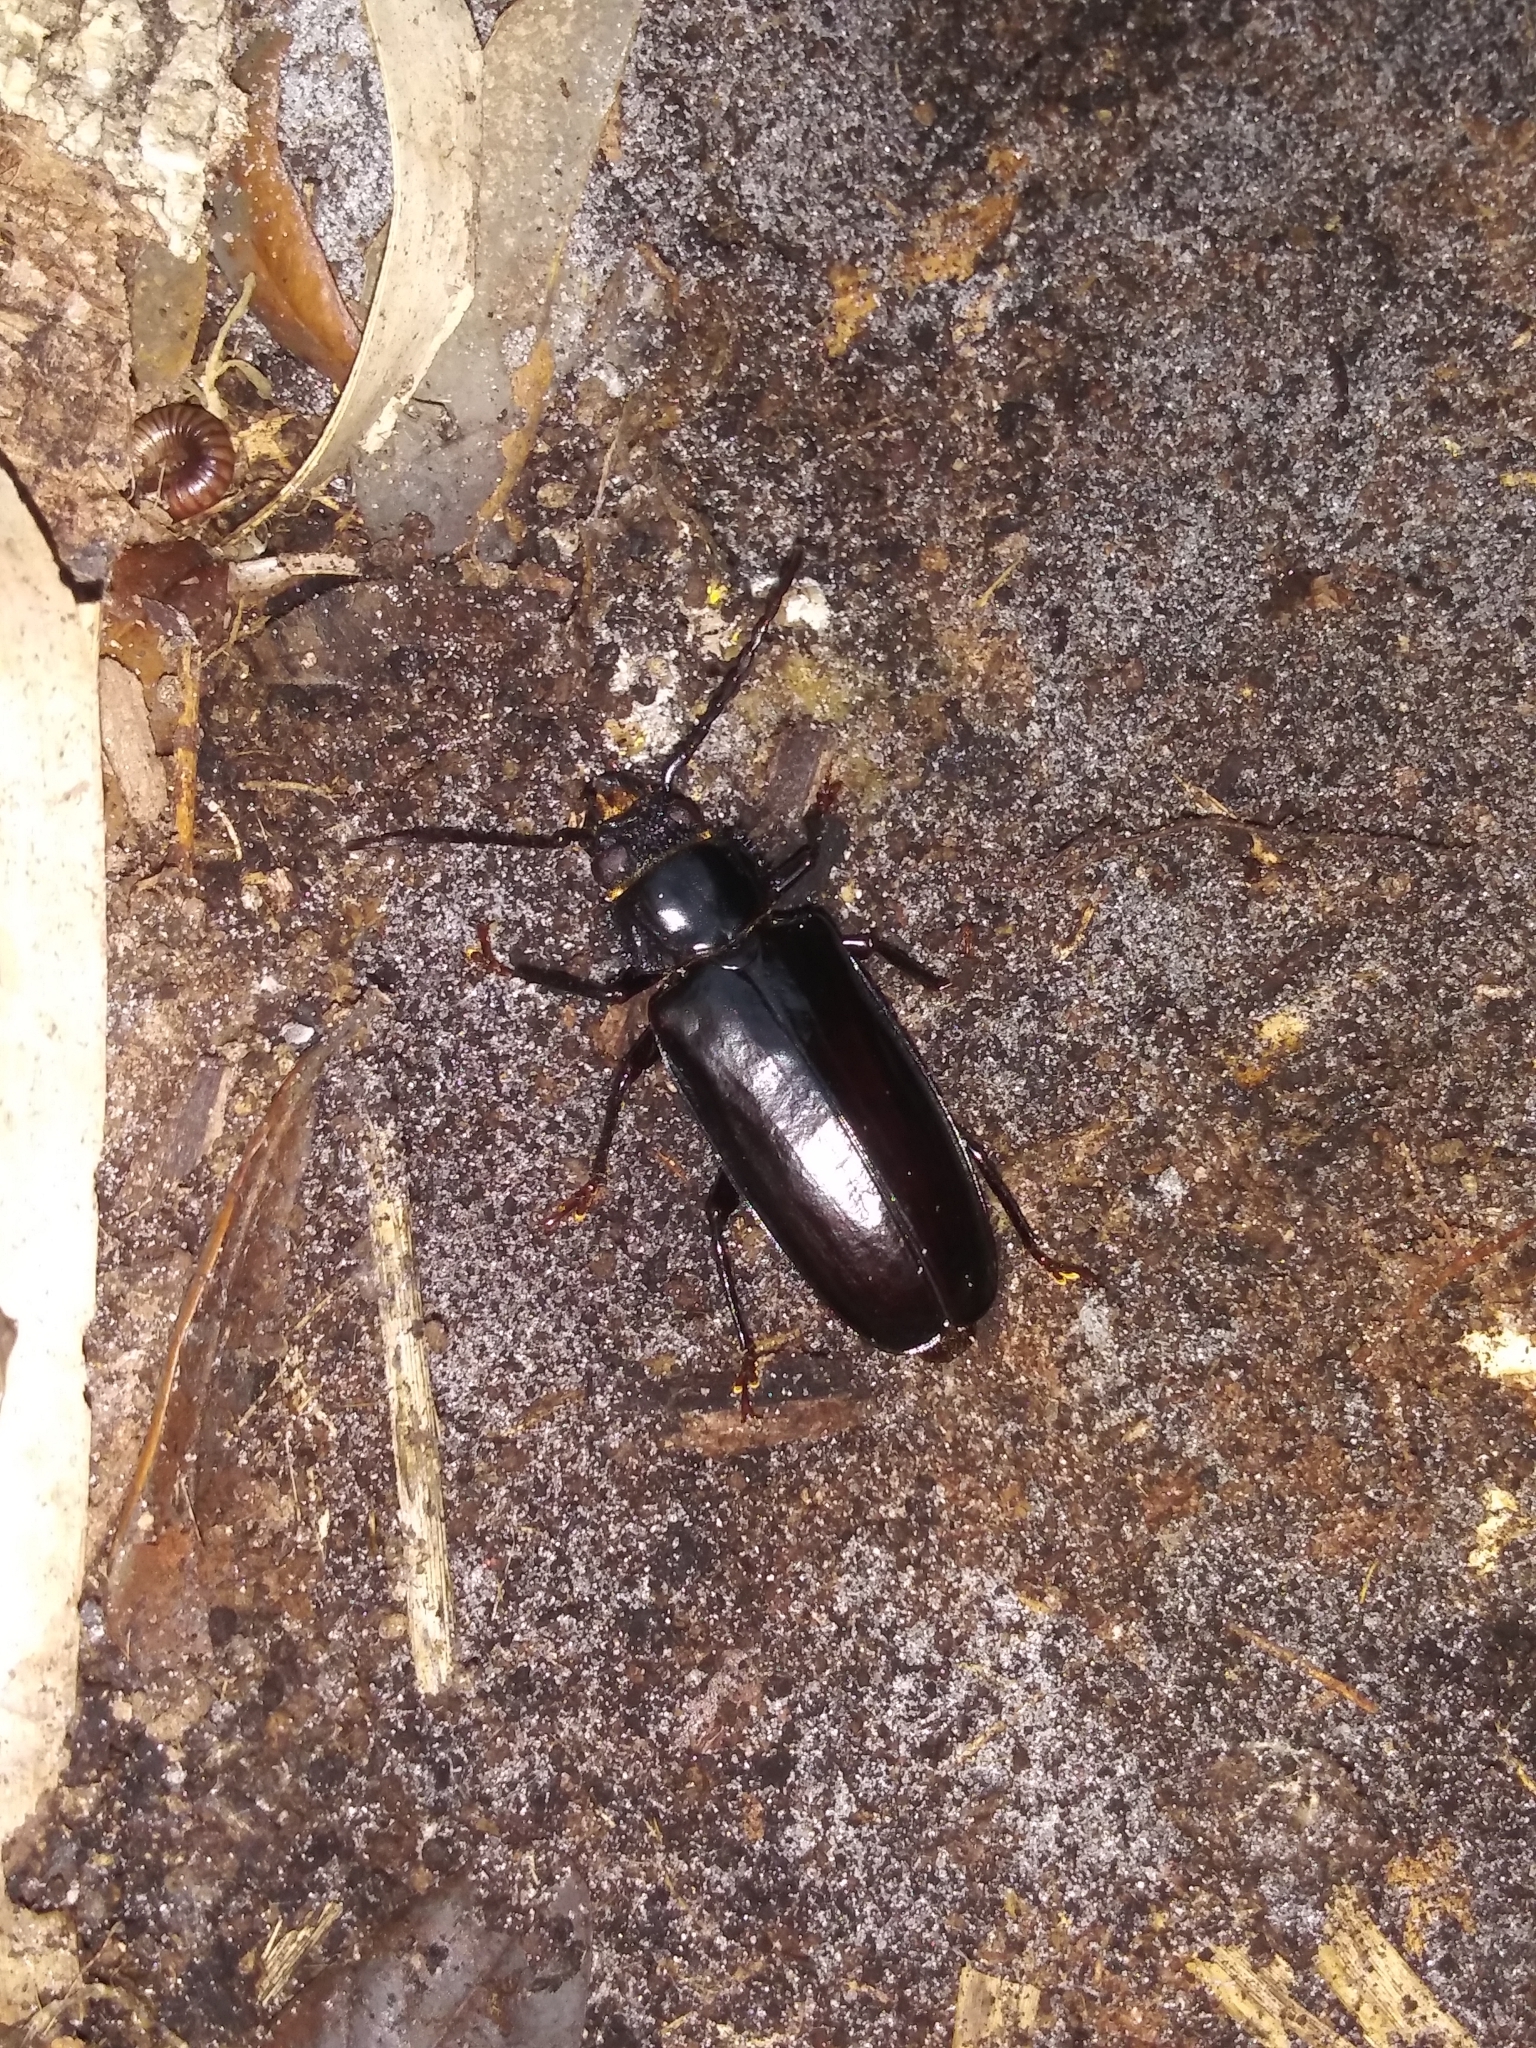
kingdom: Animalia
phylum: Arthropoda
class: Insecta
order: Coleoptera
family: Cerambycidae
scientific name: Cerambycidae
